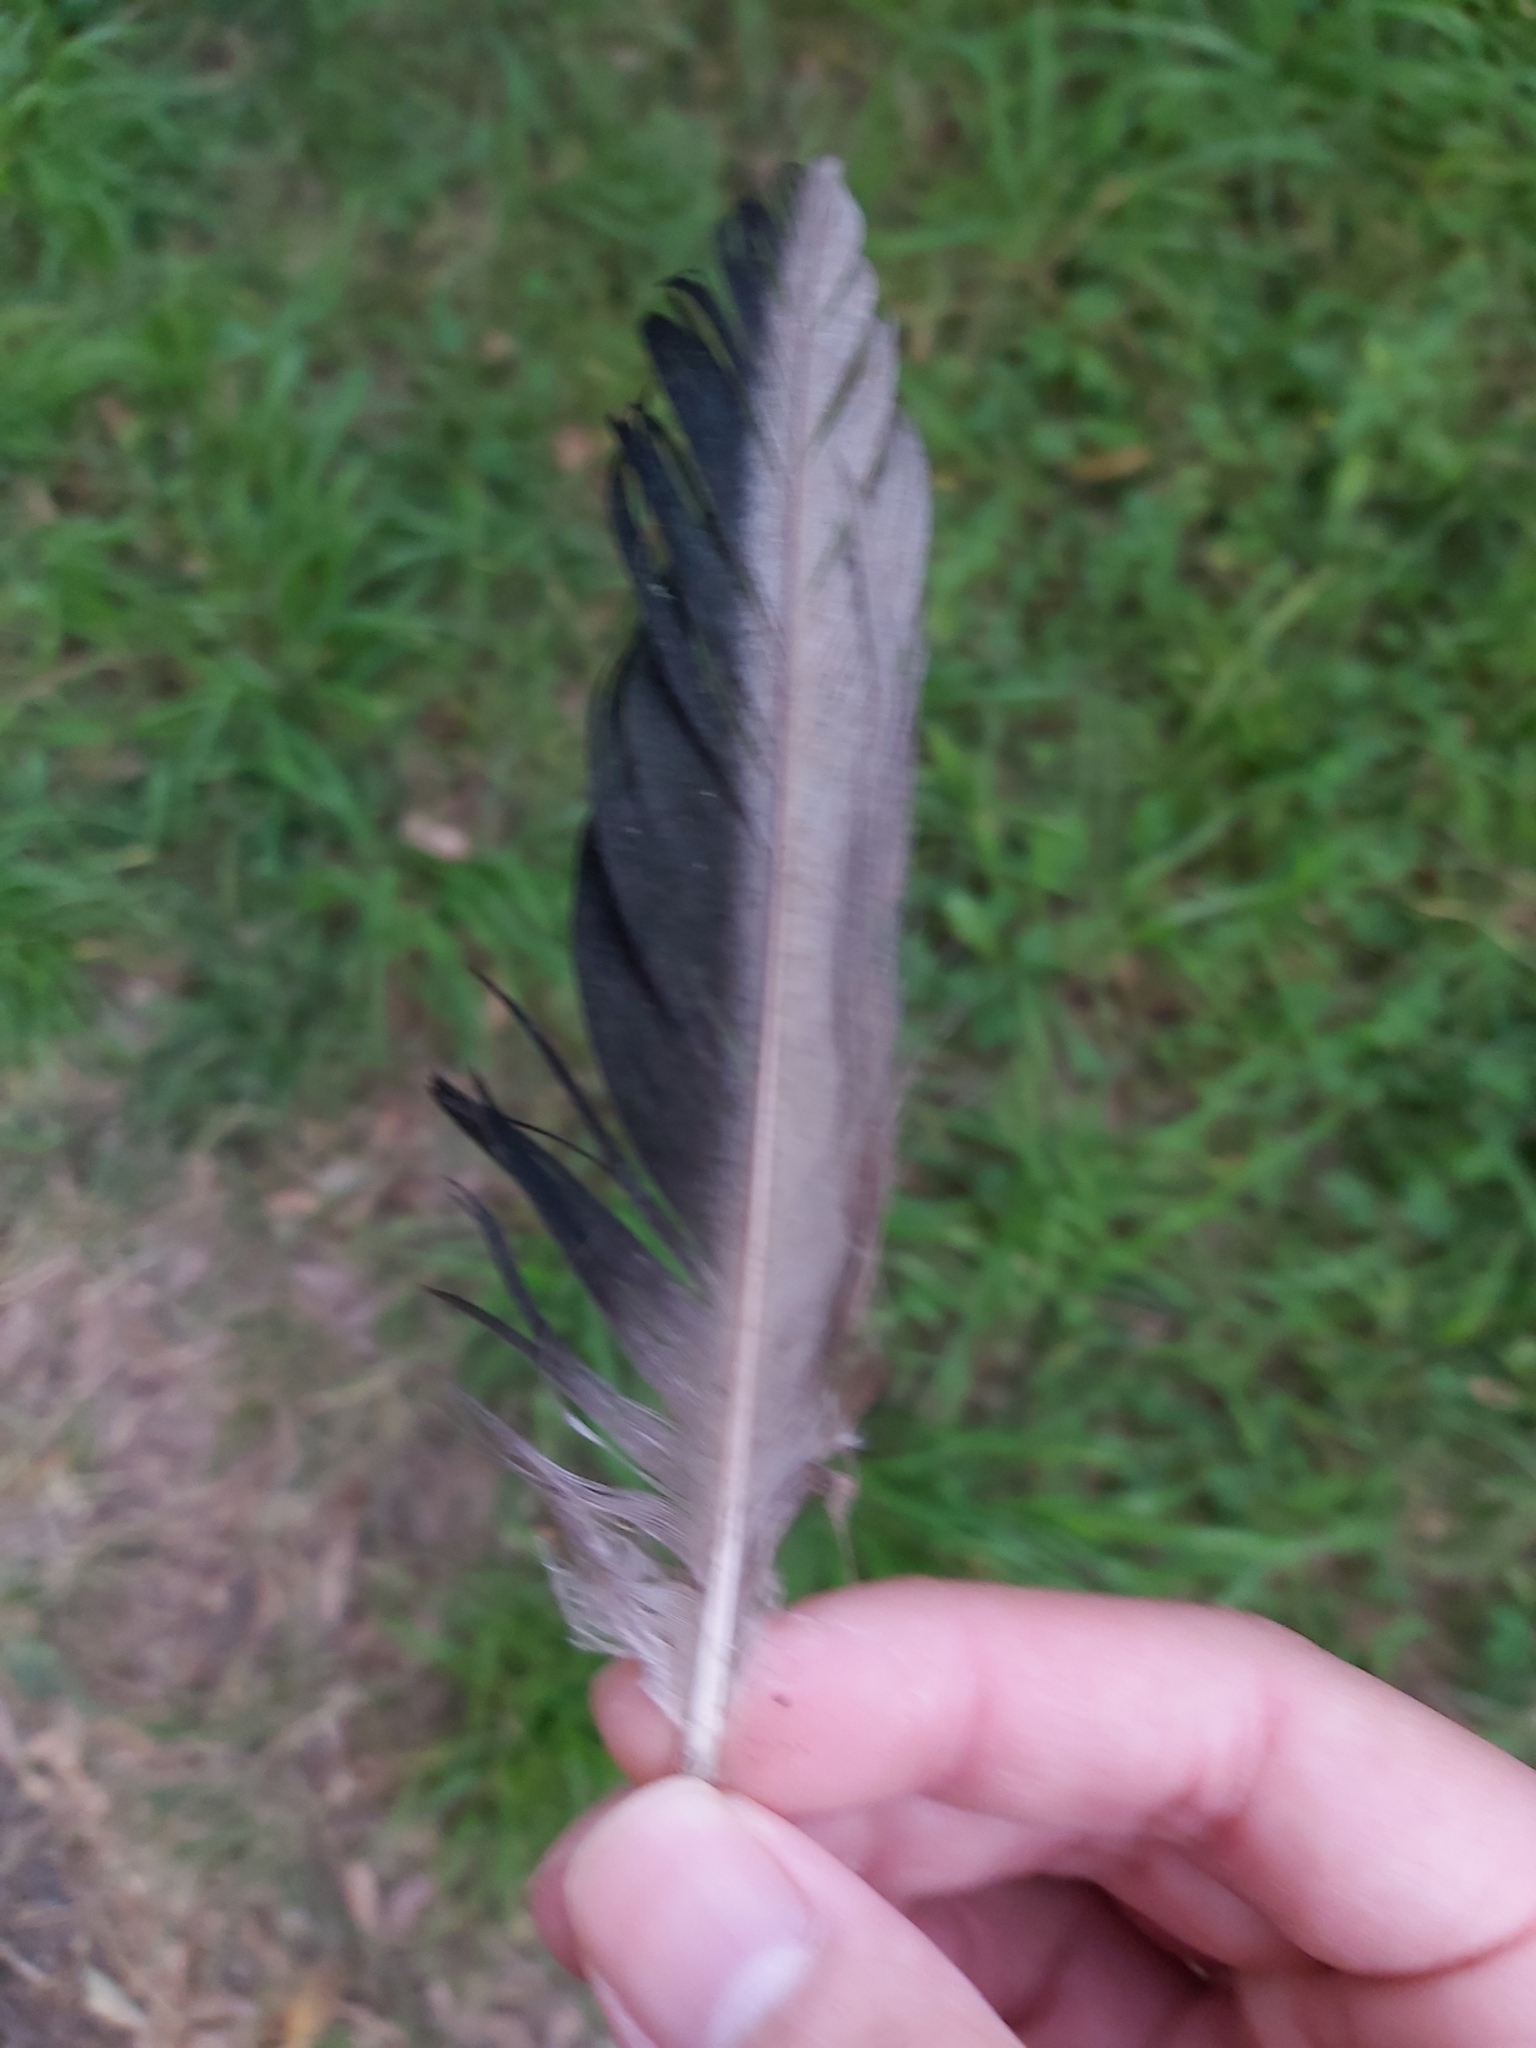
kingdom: Animalia
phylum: Chordata
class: Aves
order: Anseriformes
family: Anatidae
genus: Chenonetta
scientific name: Chenonetta jubata
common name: Maned duck
